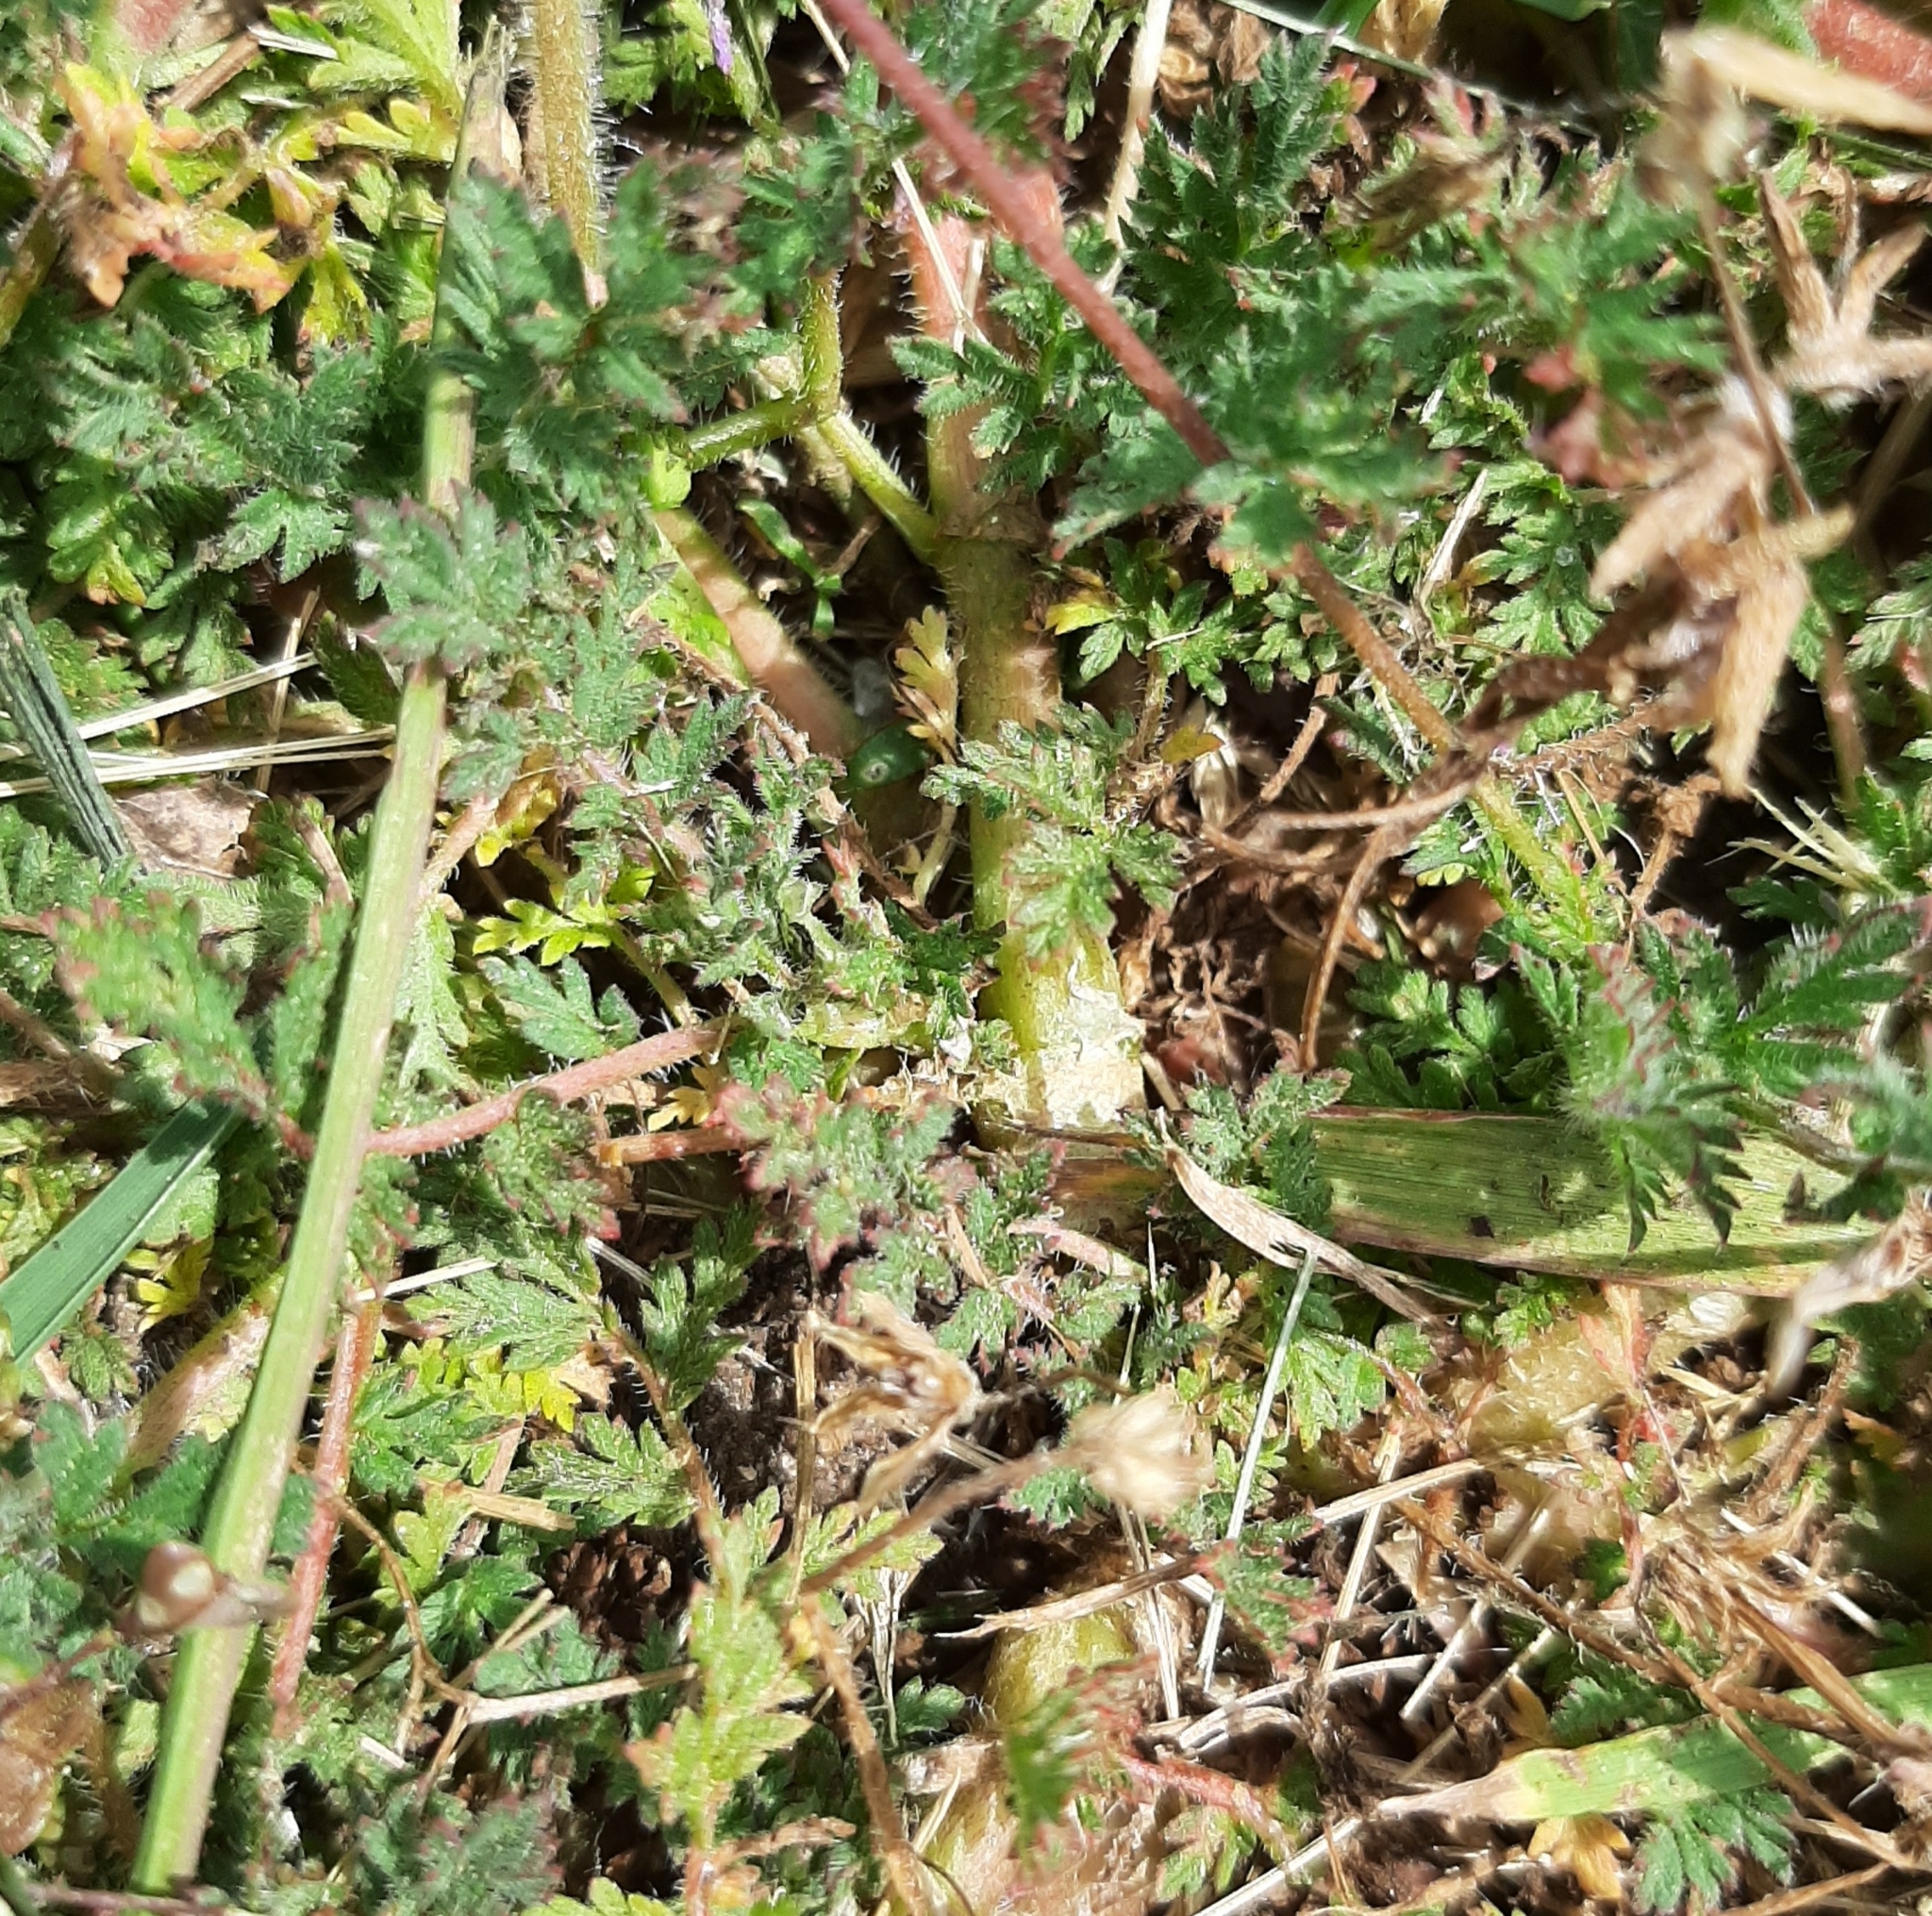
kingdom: Plantae
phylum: Tracheophyta
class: Magnoliopsida
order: Geraniales
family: Geraniaceae
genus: Erodium
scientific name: Erodium cicutarium
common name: Common stork's-bill
